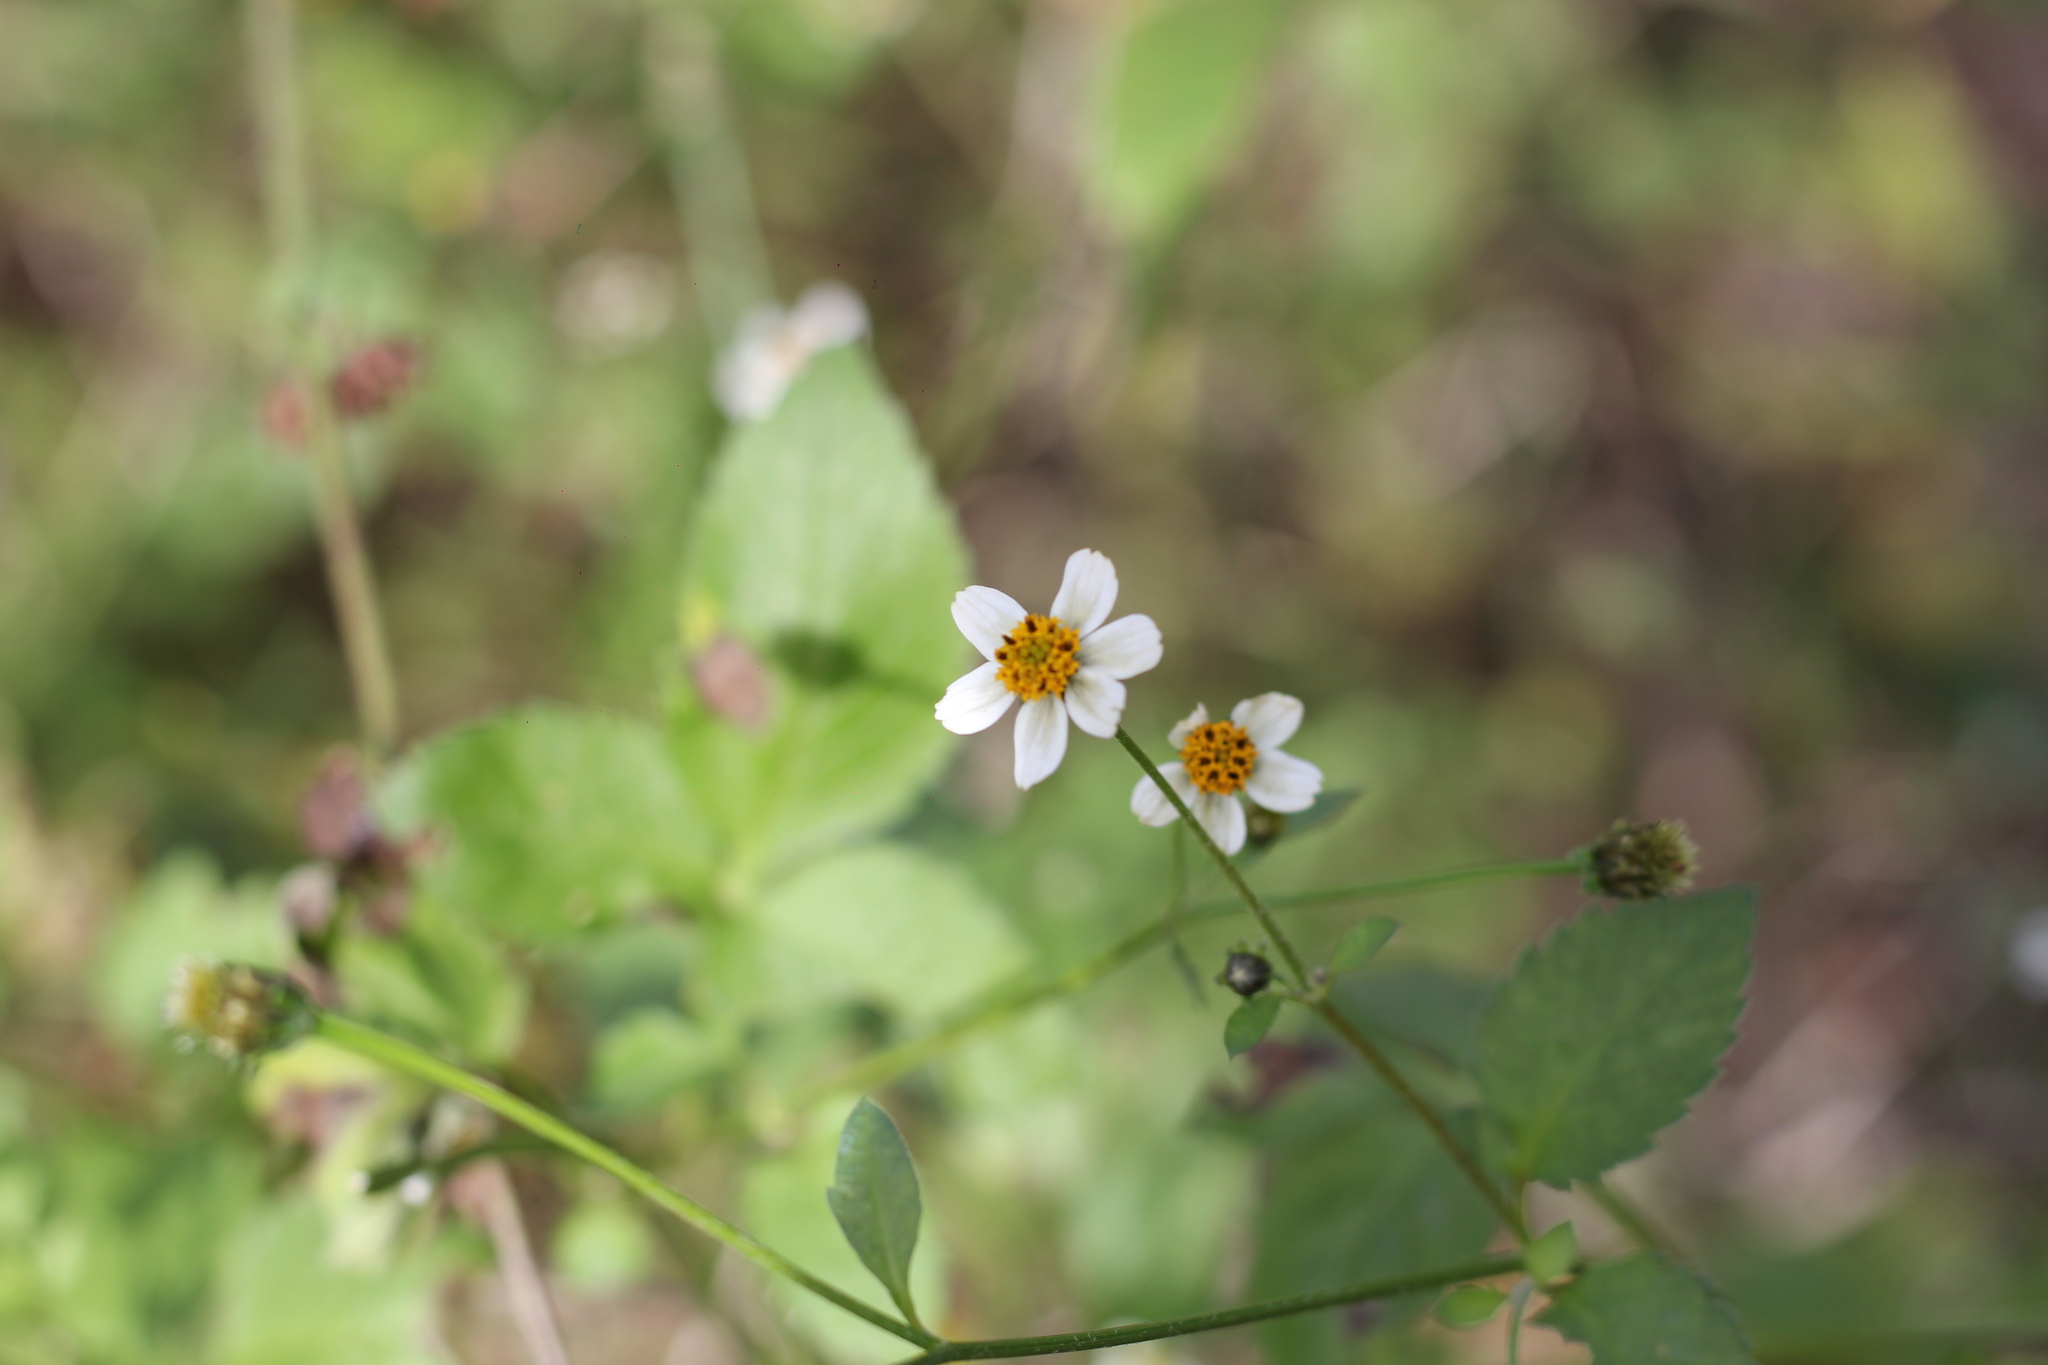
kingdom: Plantae
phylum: Tracheophyta
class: Magnoliopsida
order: Asterales
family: Asteraceae
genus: Bidens
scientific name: Bidens pilosa
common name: Black-jack
